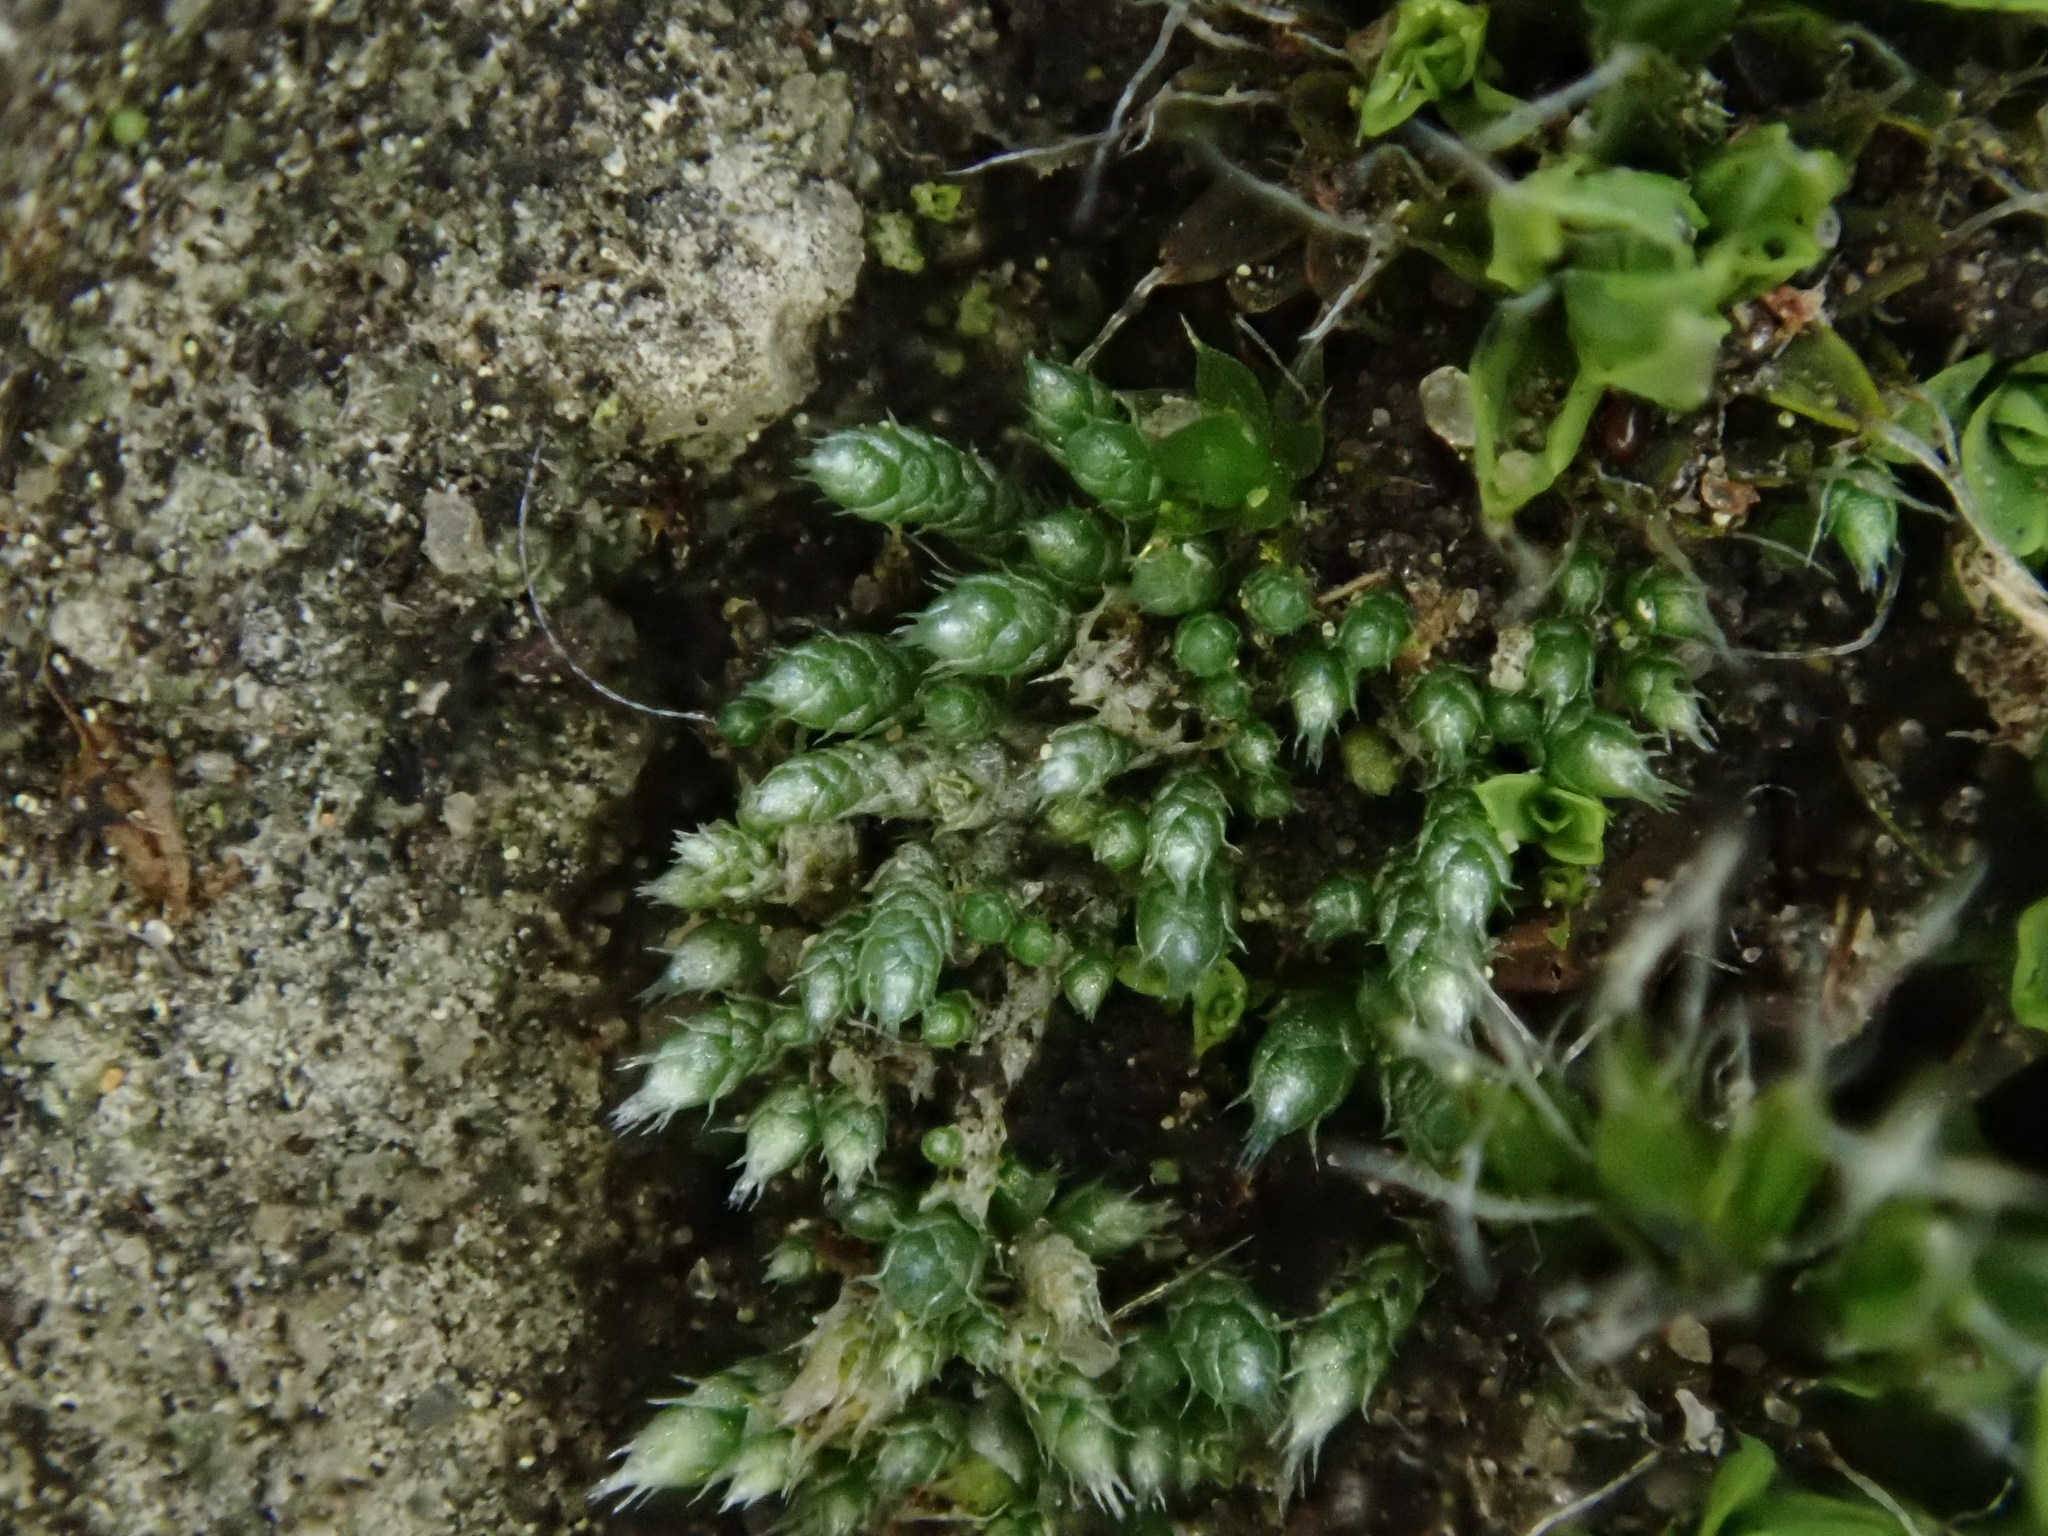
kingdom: Plantae
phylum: Bryophyta
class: Bryopsida
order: Bryales
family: Bryaceae
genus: Bryum
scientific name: Bryum argenteum
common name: Silver-moss
